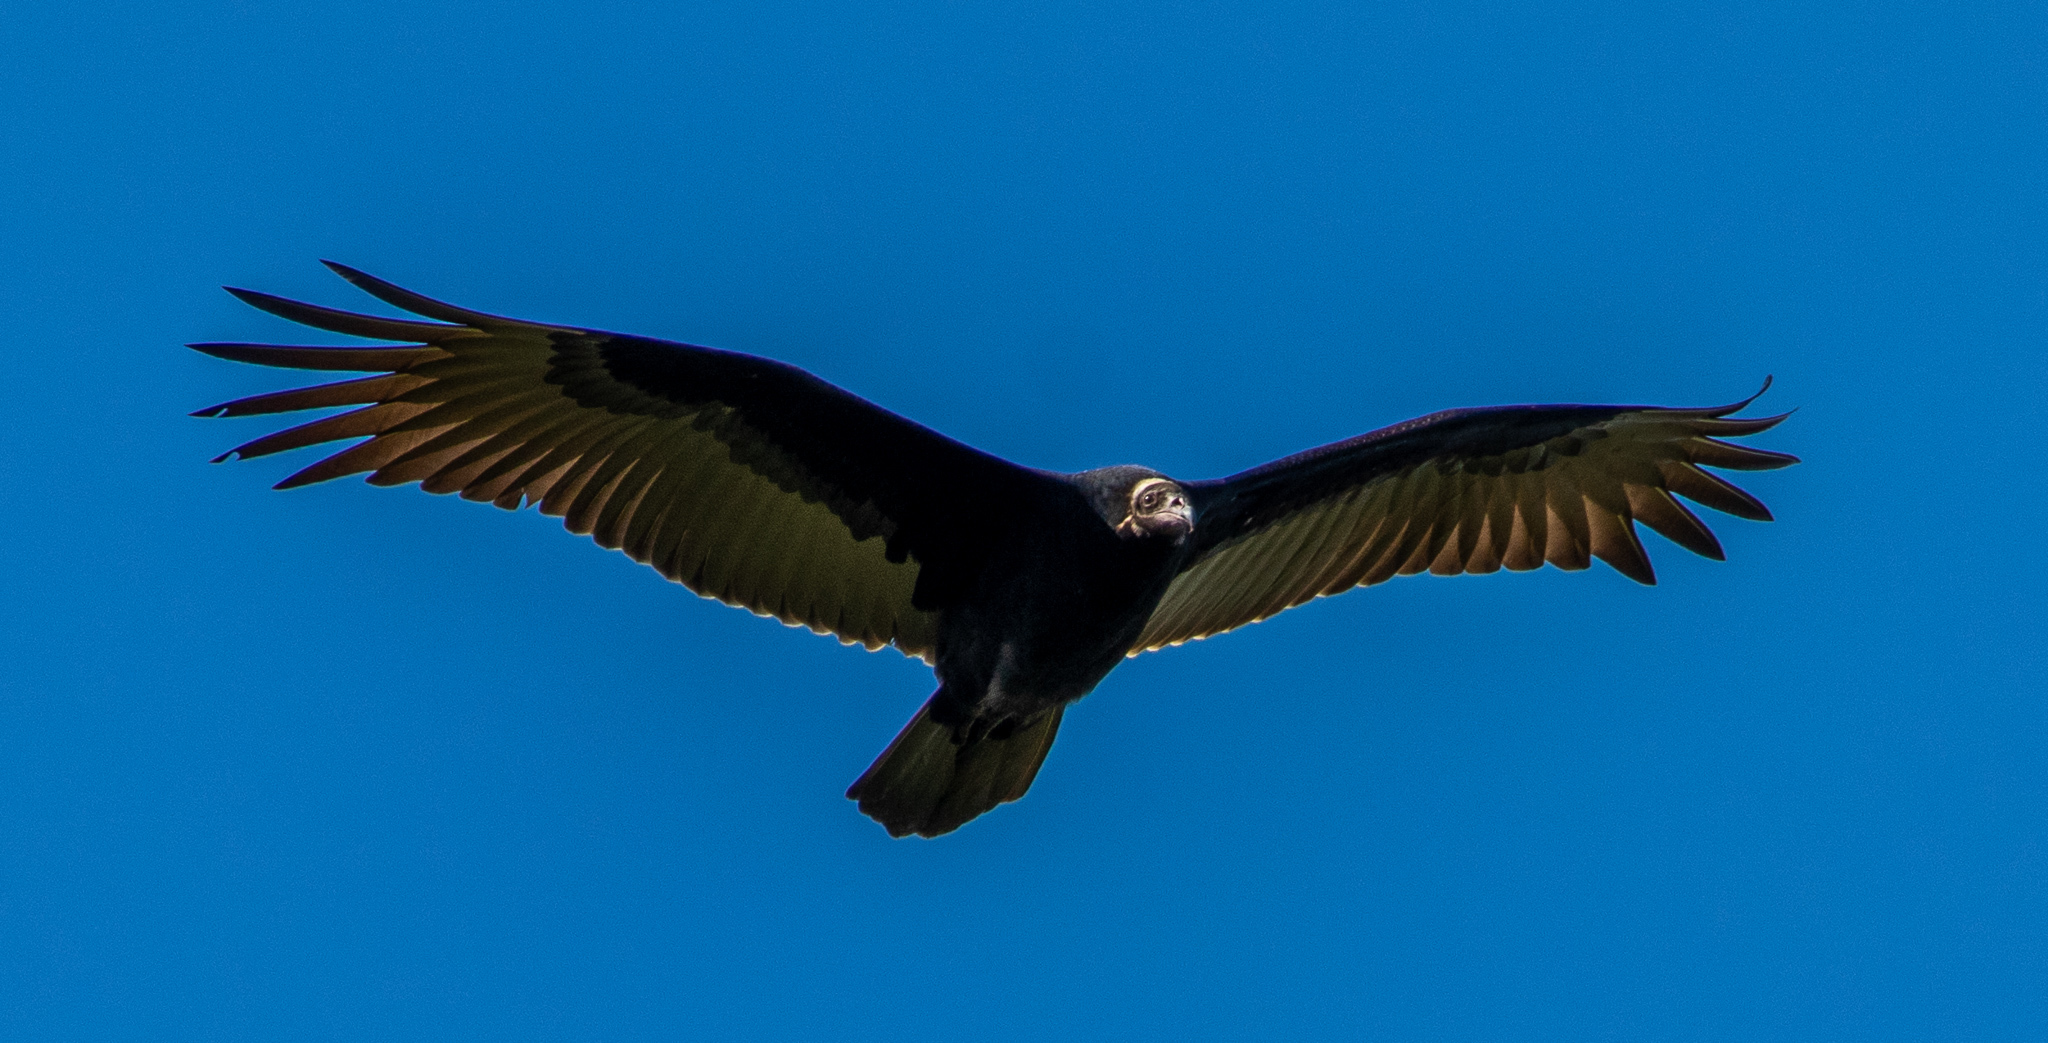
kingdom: Animalia
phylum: Chordata
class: Aves
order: Accipitriformes
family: Cathartidae
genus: Cathartes
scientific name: Cathartes aura
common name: Turkey vulture
